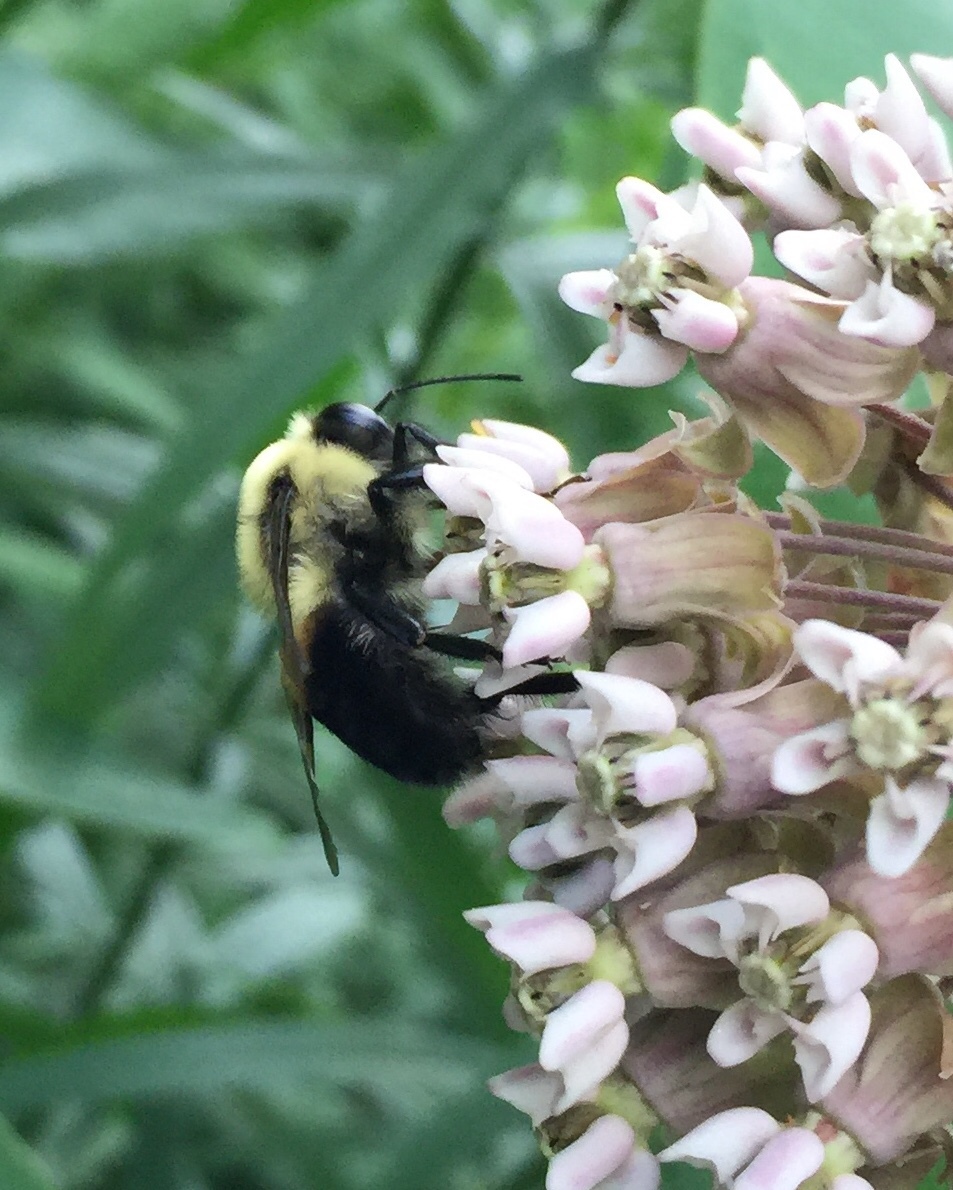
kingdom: Animalia
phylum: Arthropoda
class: Insecta
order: Hymenoptera
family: Apidae
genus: Bombus
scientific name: Bombus griseocollis
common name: Brown-belted bumble bee
